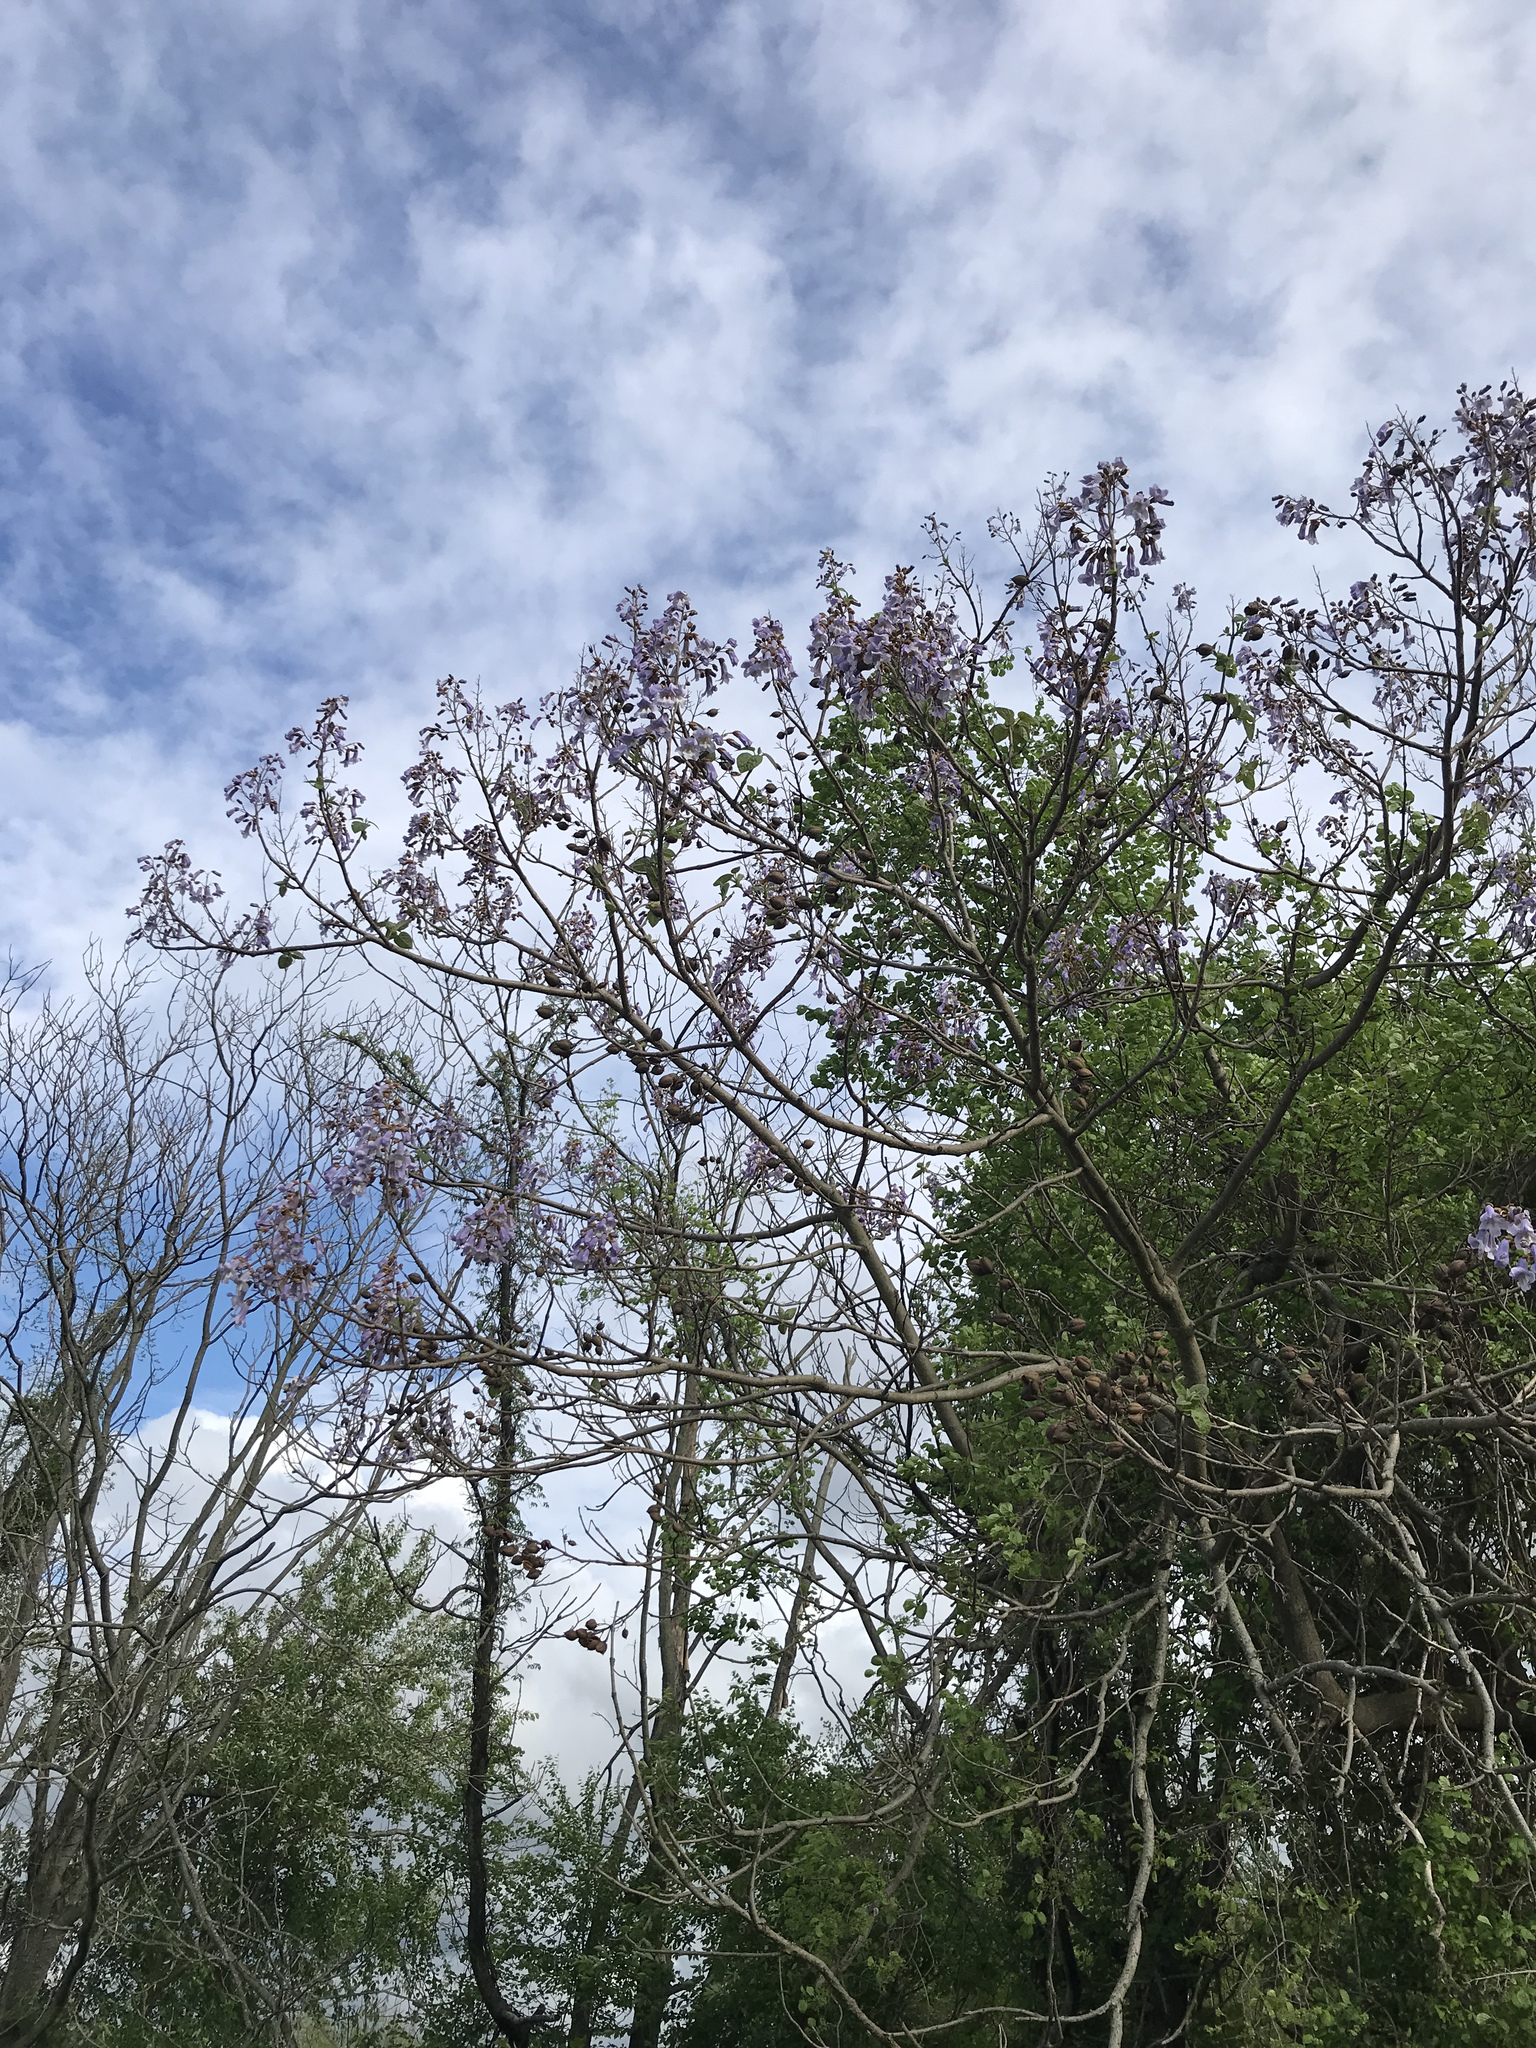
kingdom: Plantae
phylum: Tracheophyta
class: Magnoliopsida
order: Lamiales
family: Paulowniaceae
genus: Paulownia
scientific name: Paulownia tomentosa
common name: Foxglove-tree
